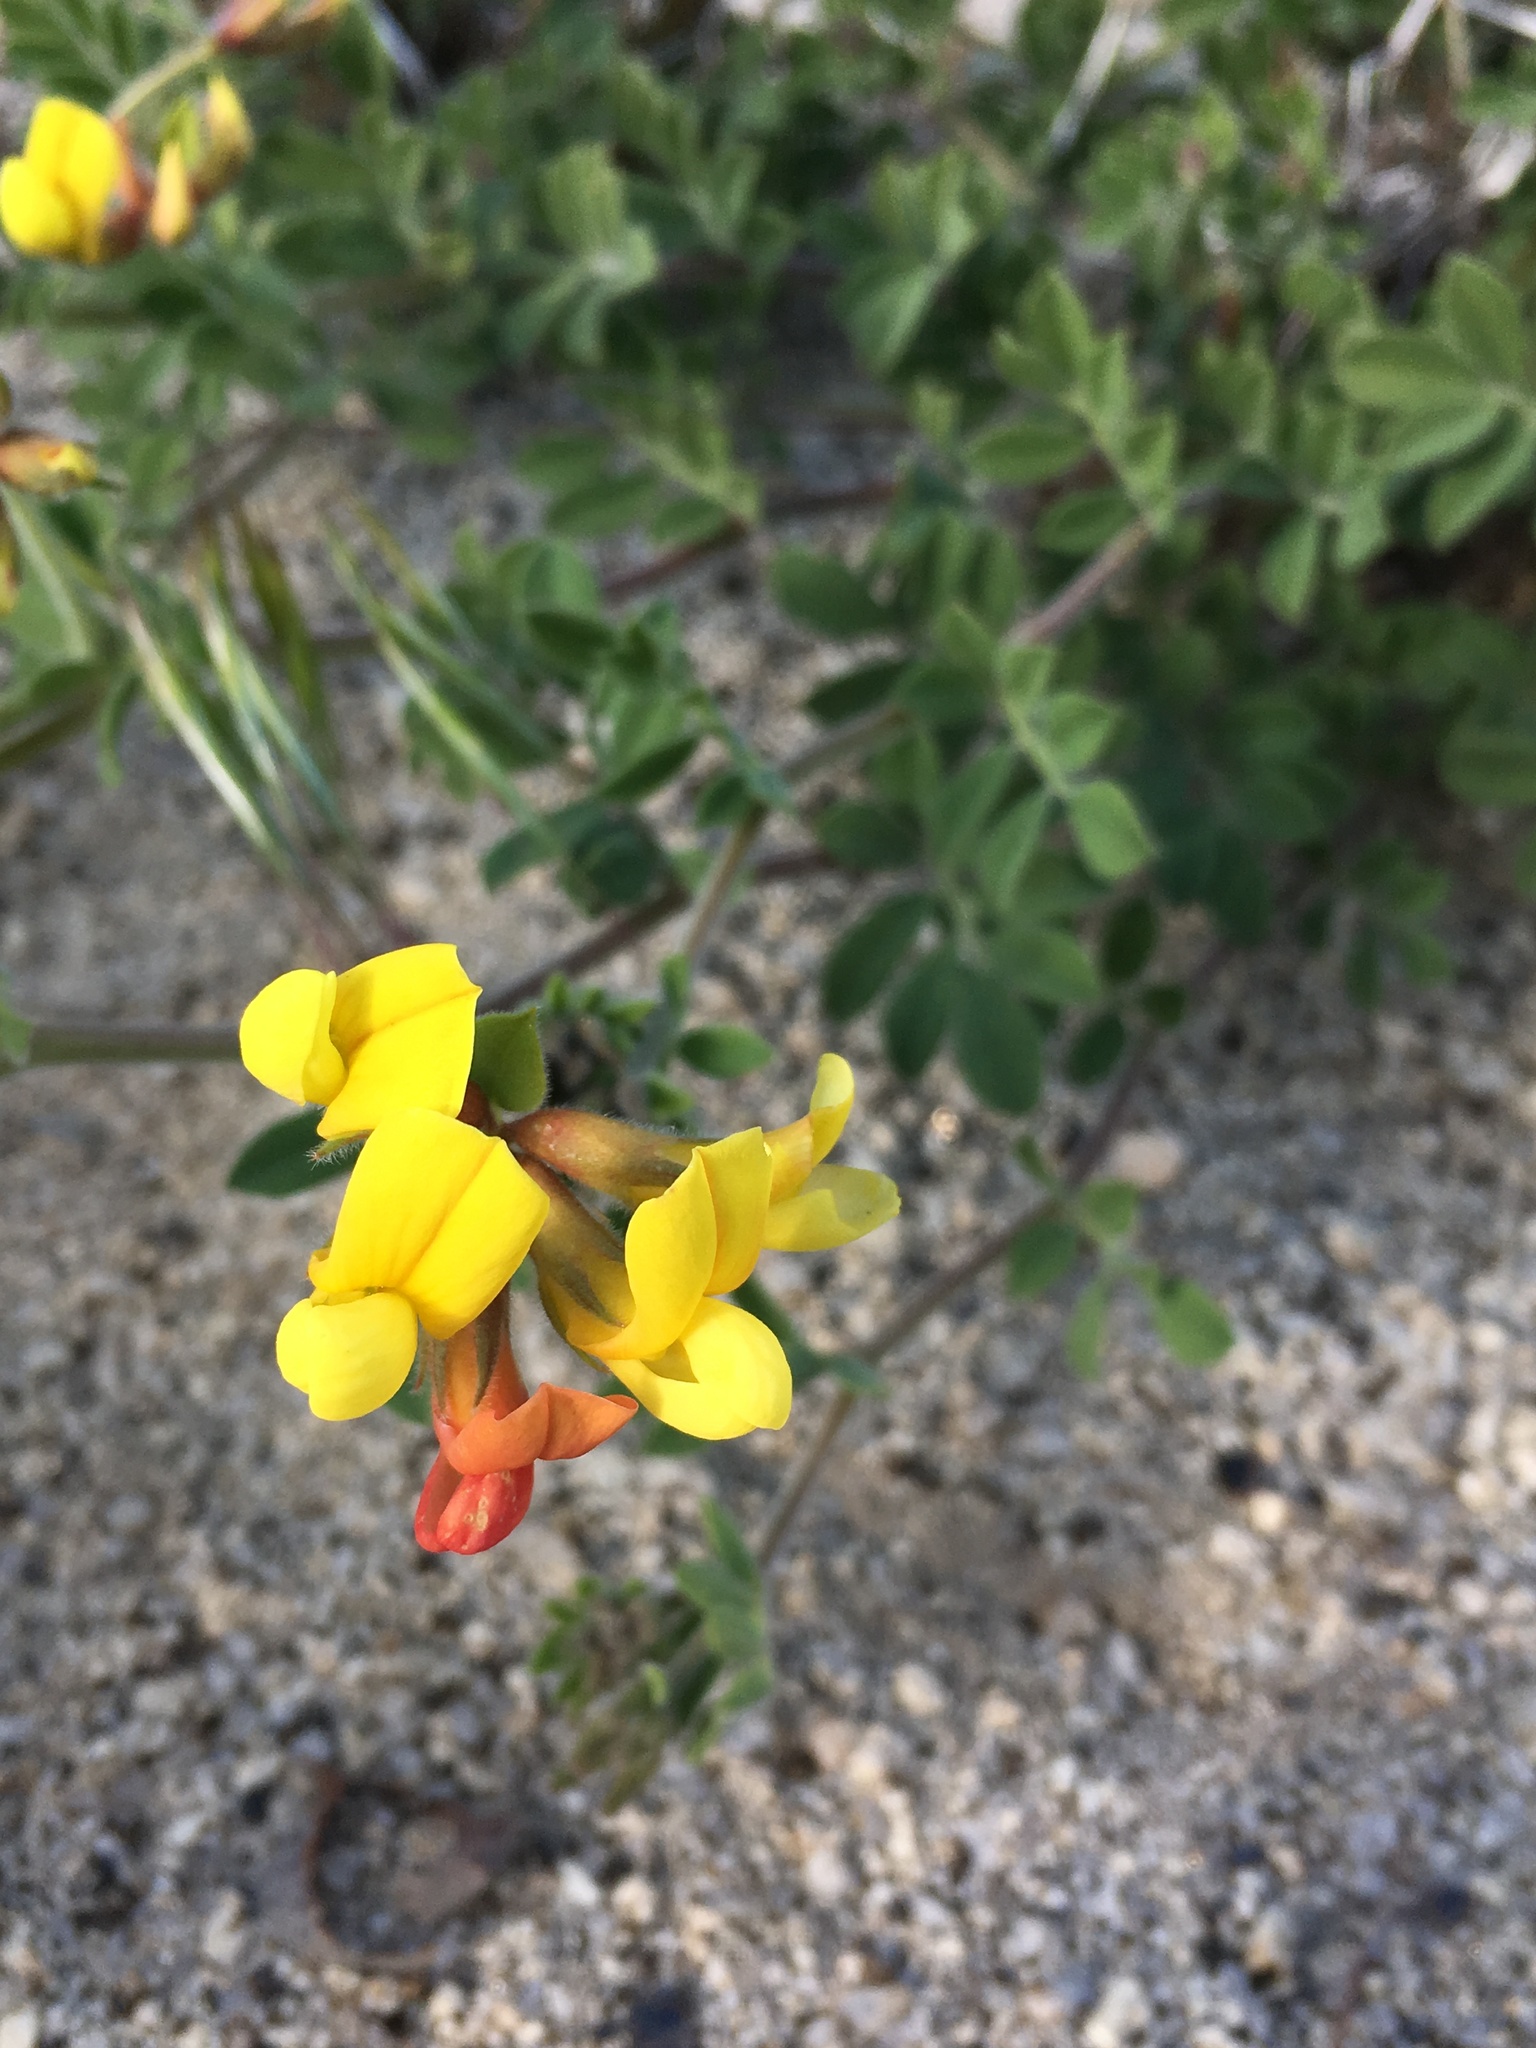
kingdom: Plantae
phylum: Tracheophyta
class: Magnoliopsida
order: Fabales
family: Fabaceae
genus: Acmispon
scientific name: Acmispon grandiflorus
